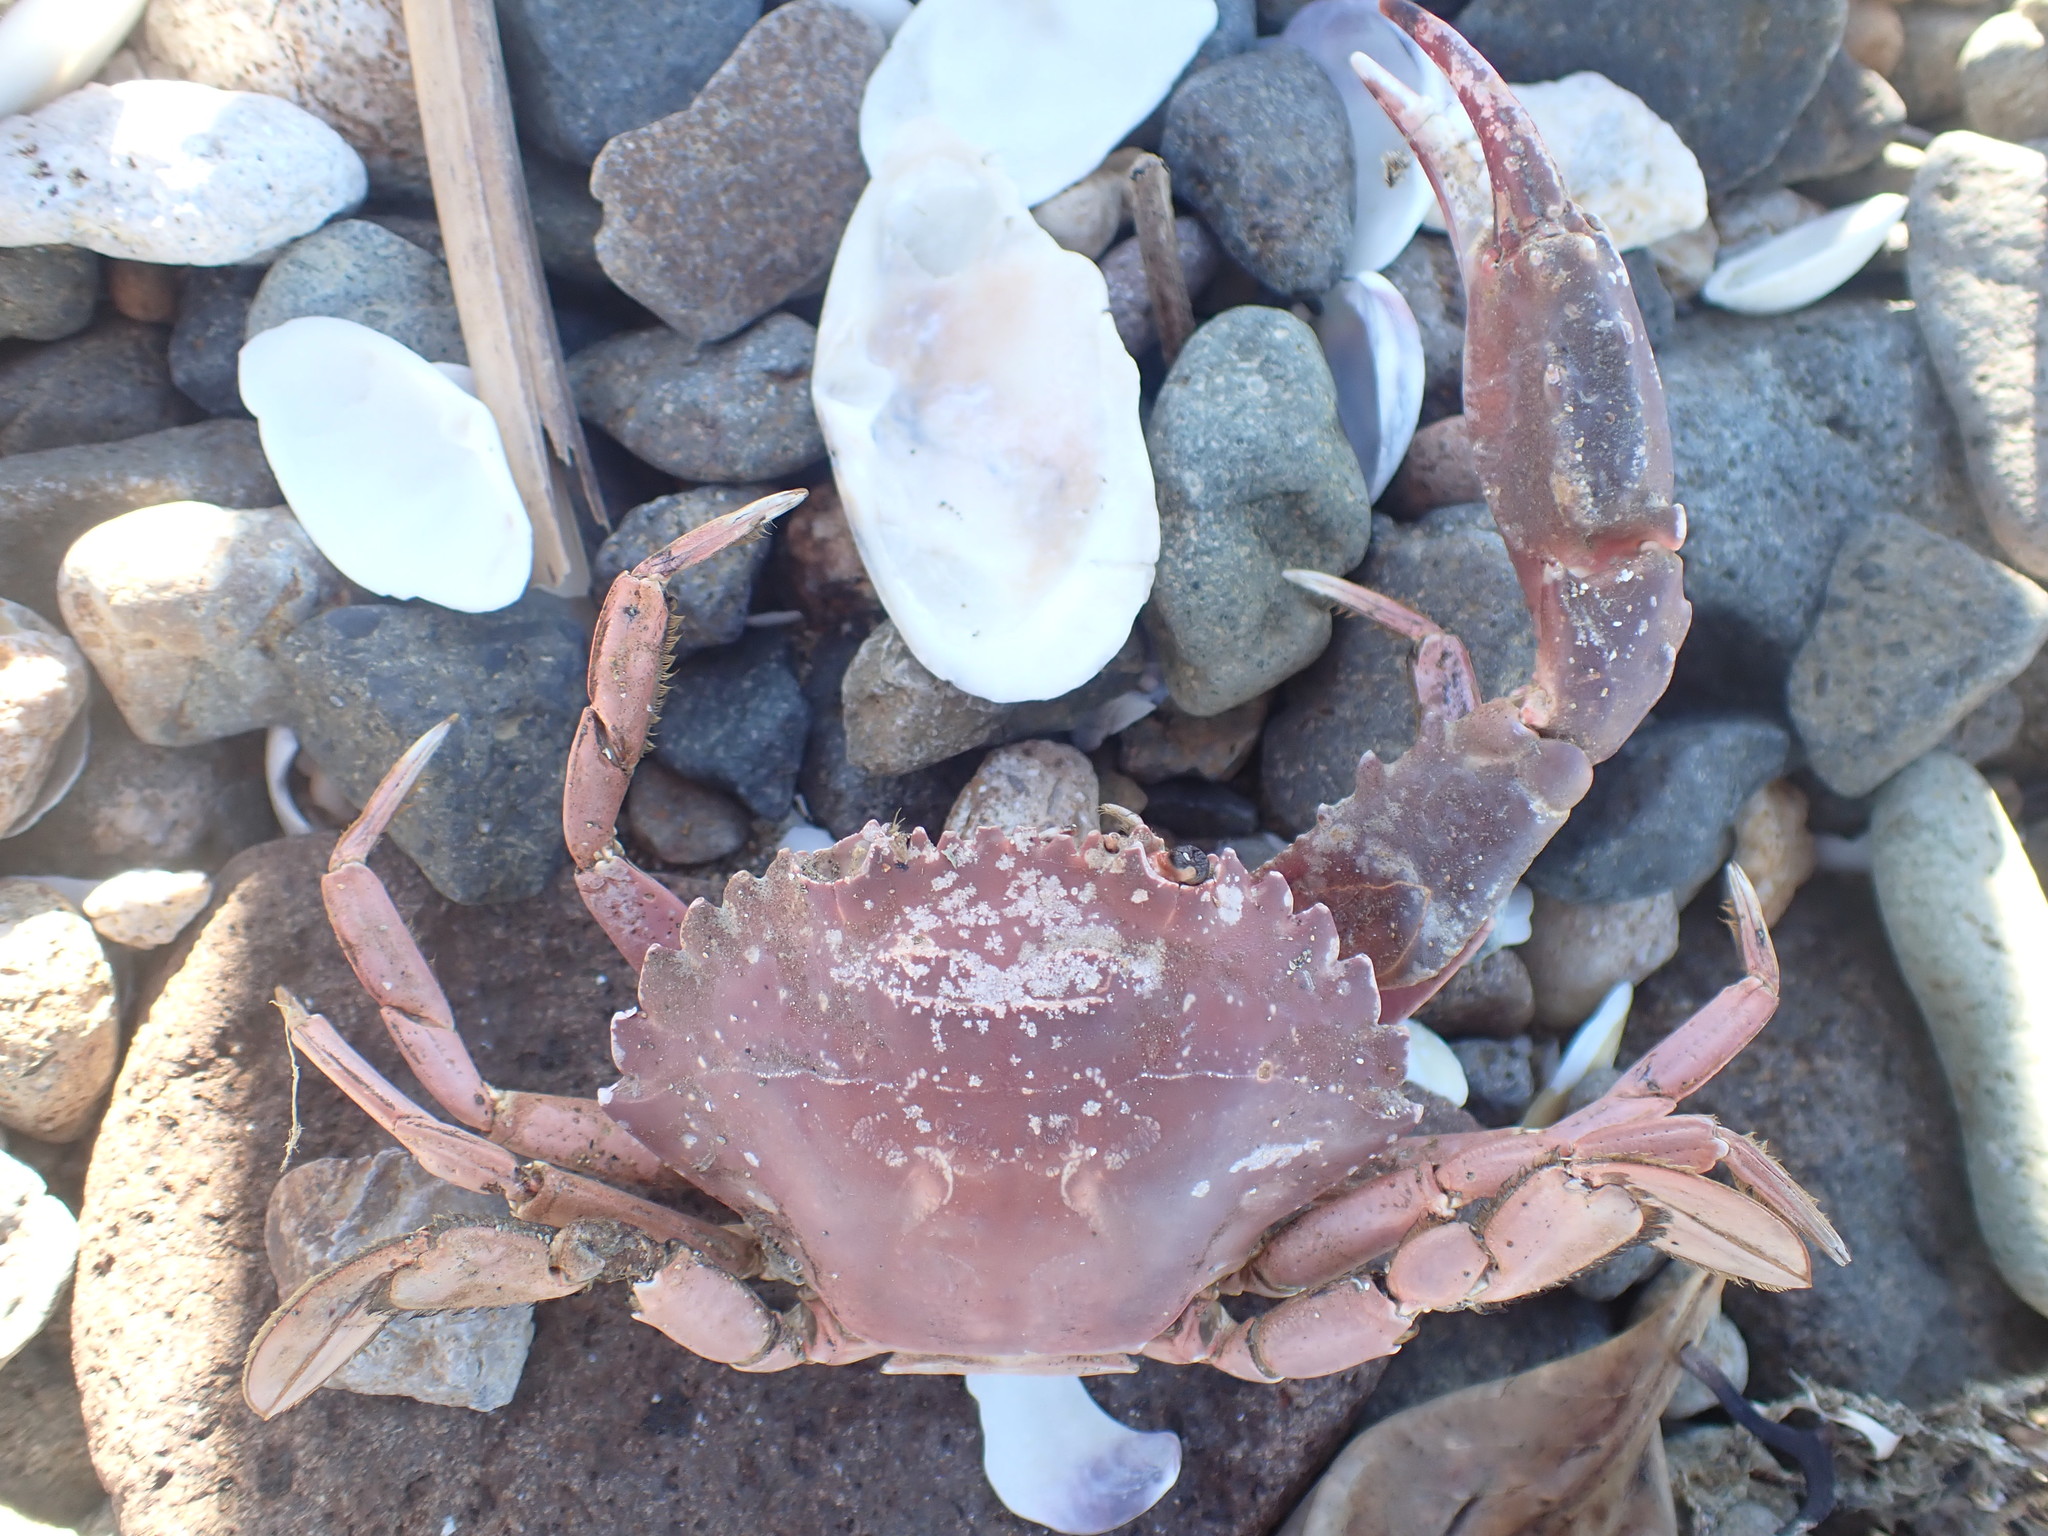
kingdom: Animalia
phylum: Arthropoda
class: Malacostraca
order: Decapoda
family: Portunidae
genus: Charybdis
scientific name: Charybdis japonica
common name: Asian paddle crab
